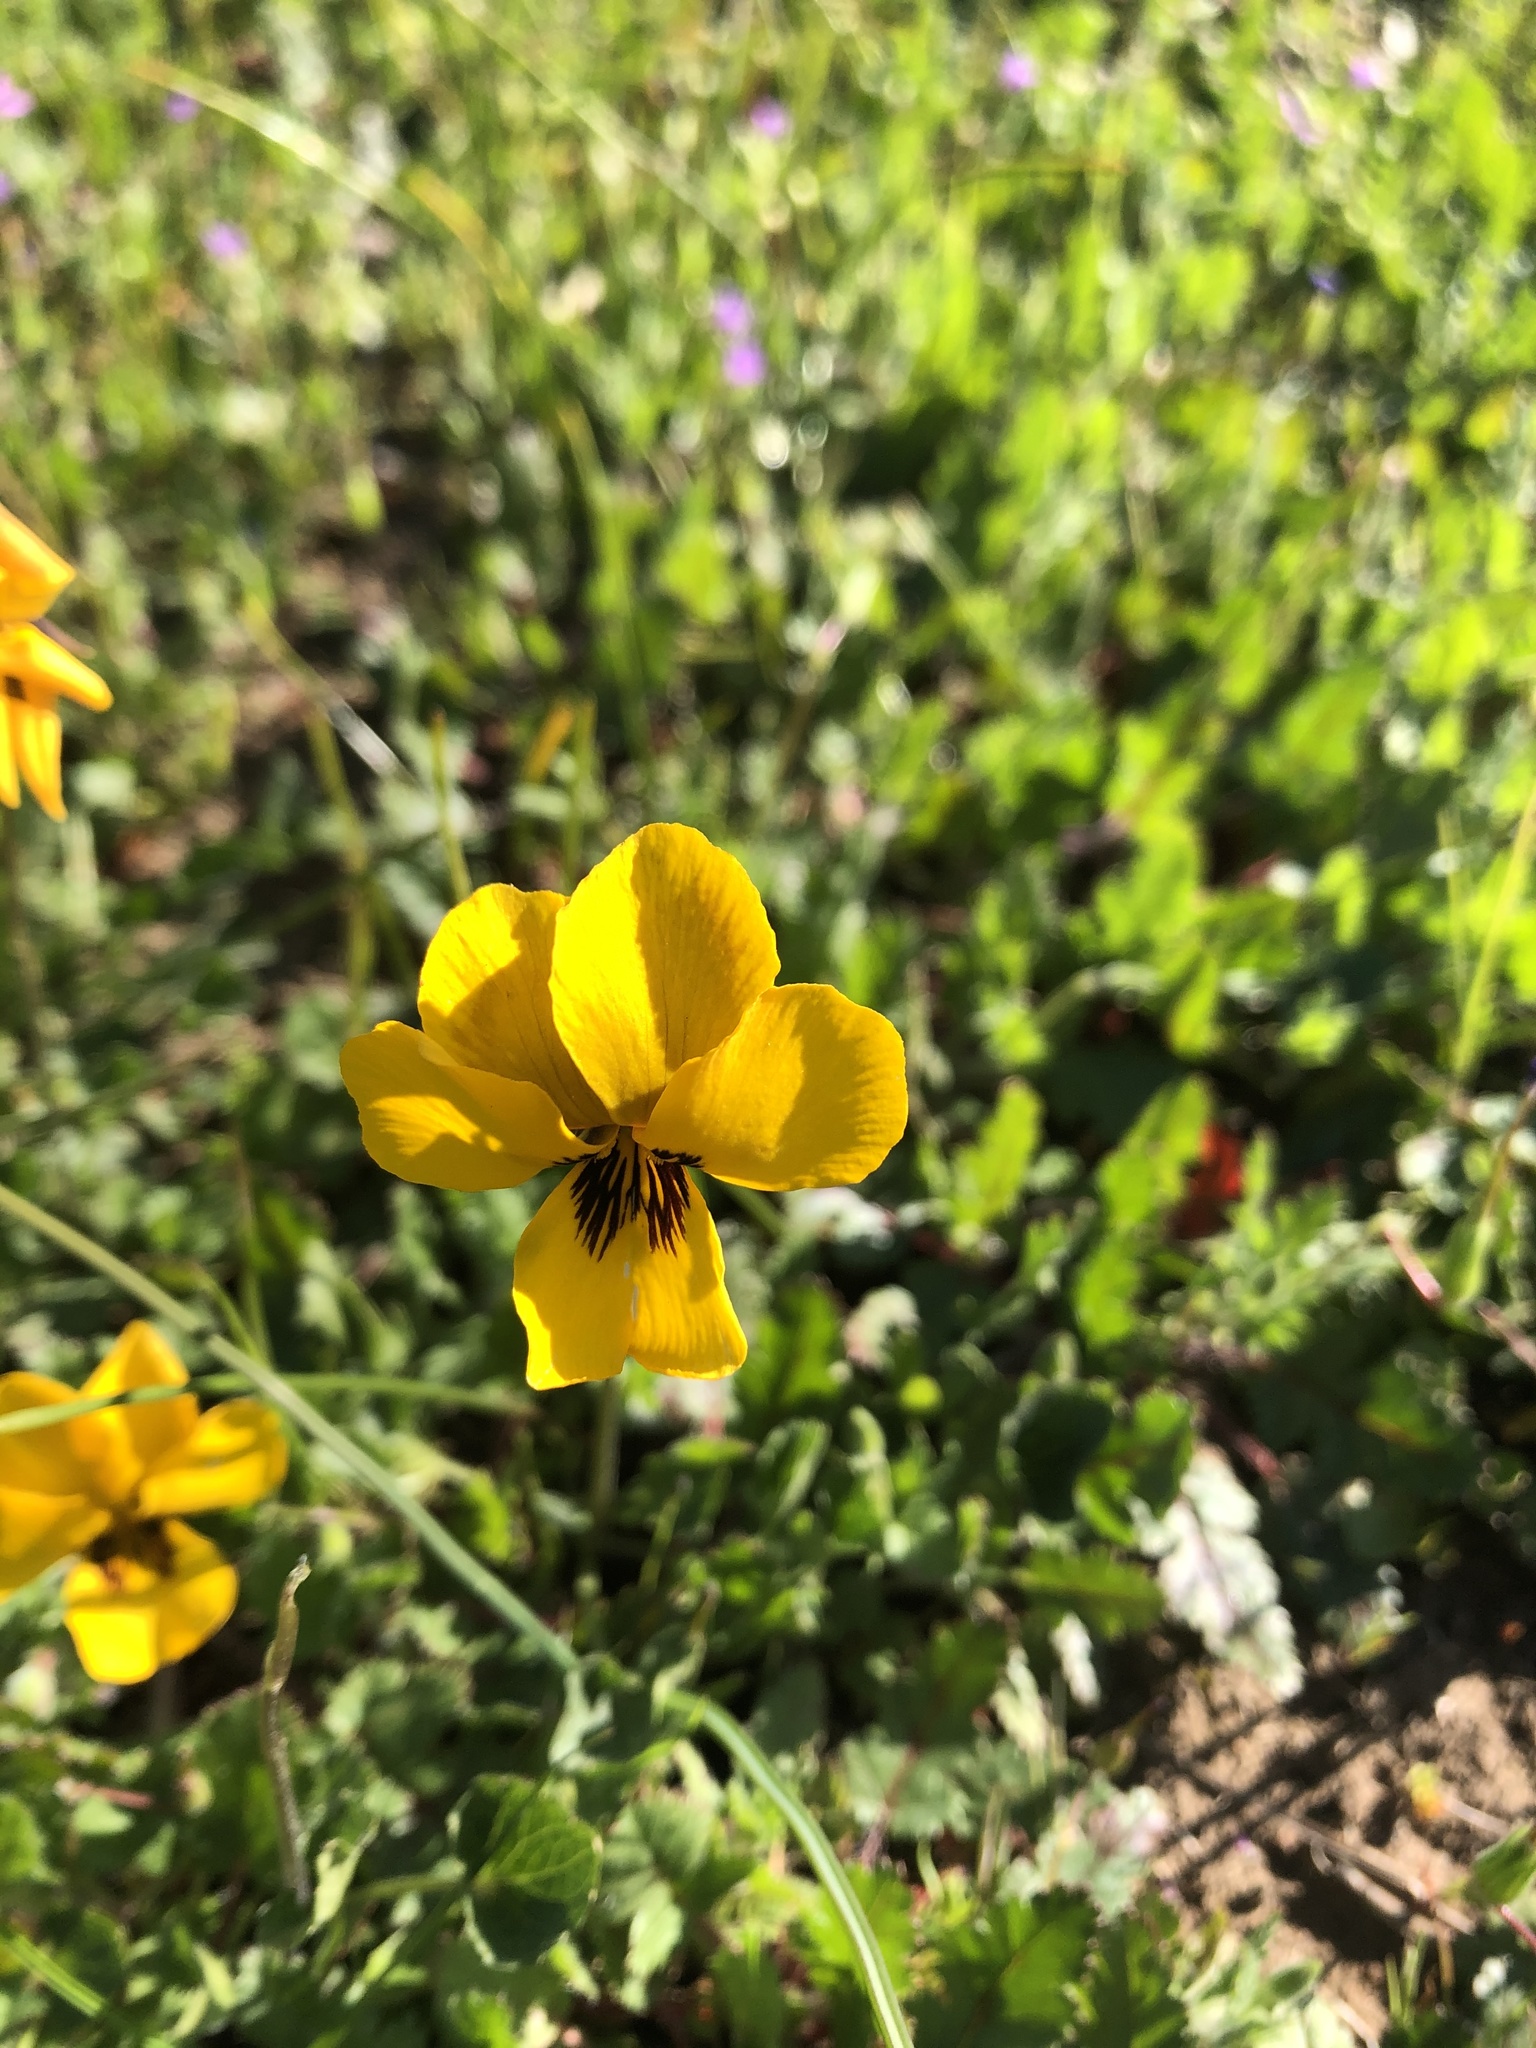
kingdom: Plantae
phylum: Tracheophyta
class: Magnoliopsida
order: Malpighiales
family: Violaceae
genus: Viola
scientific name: Viola pedunculata
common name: California golden violet
